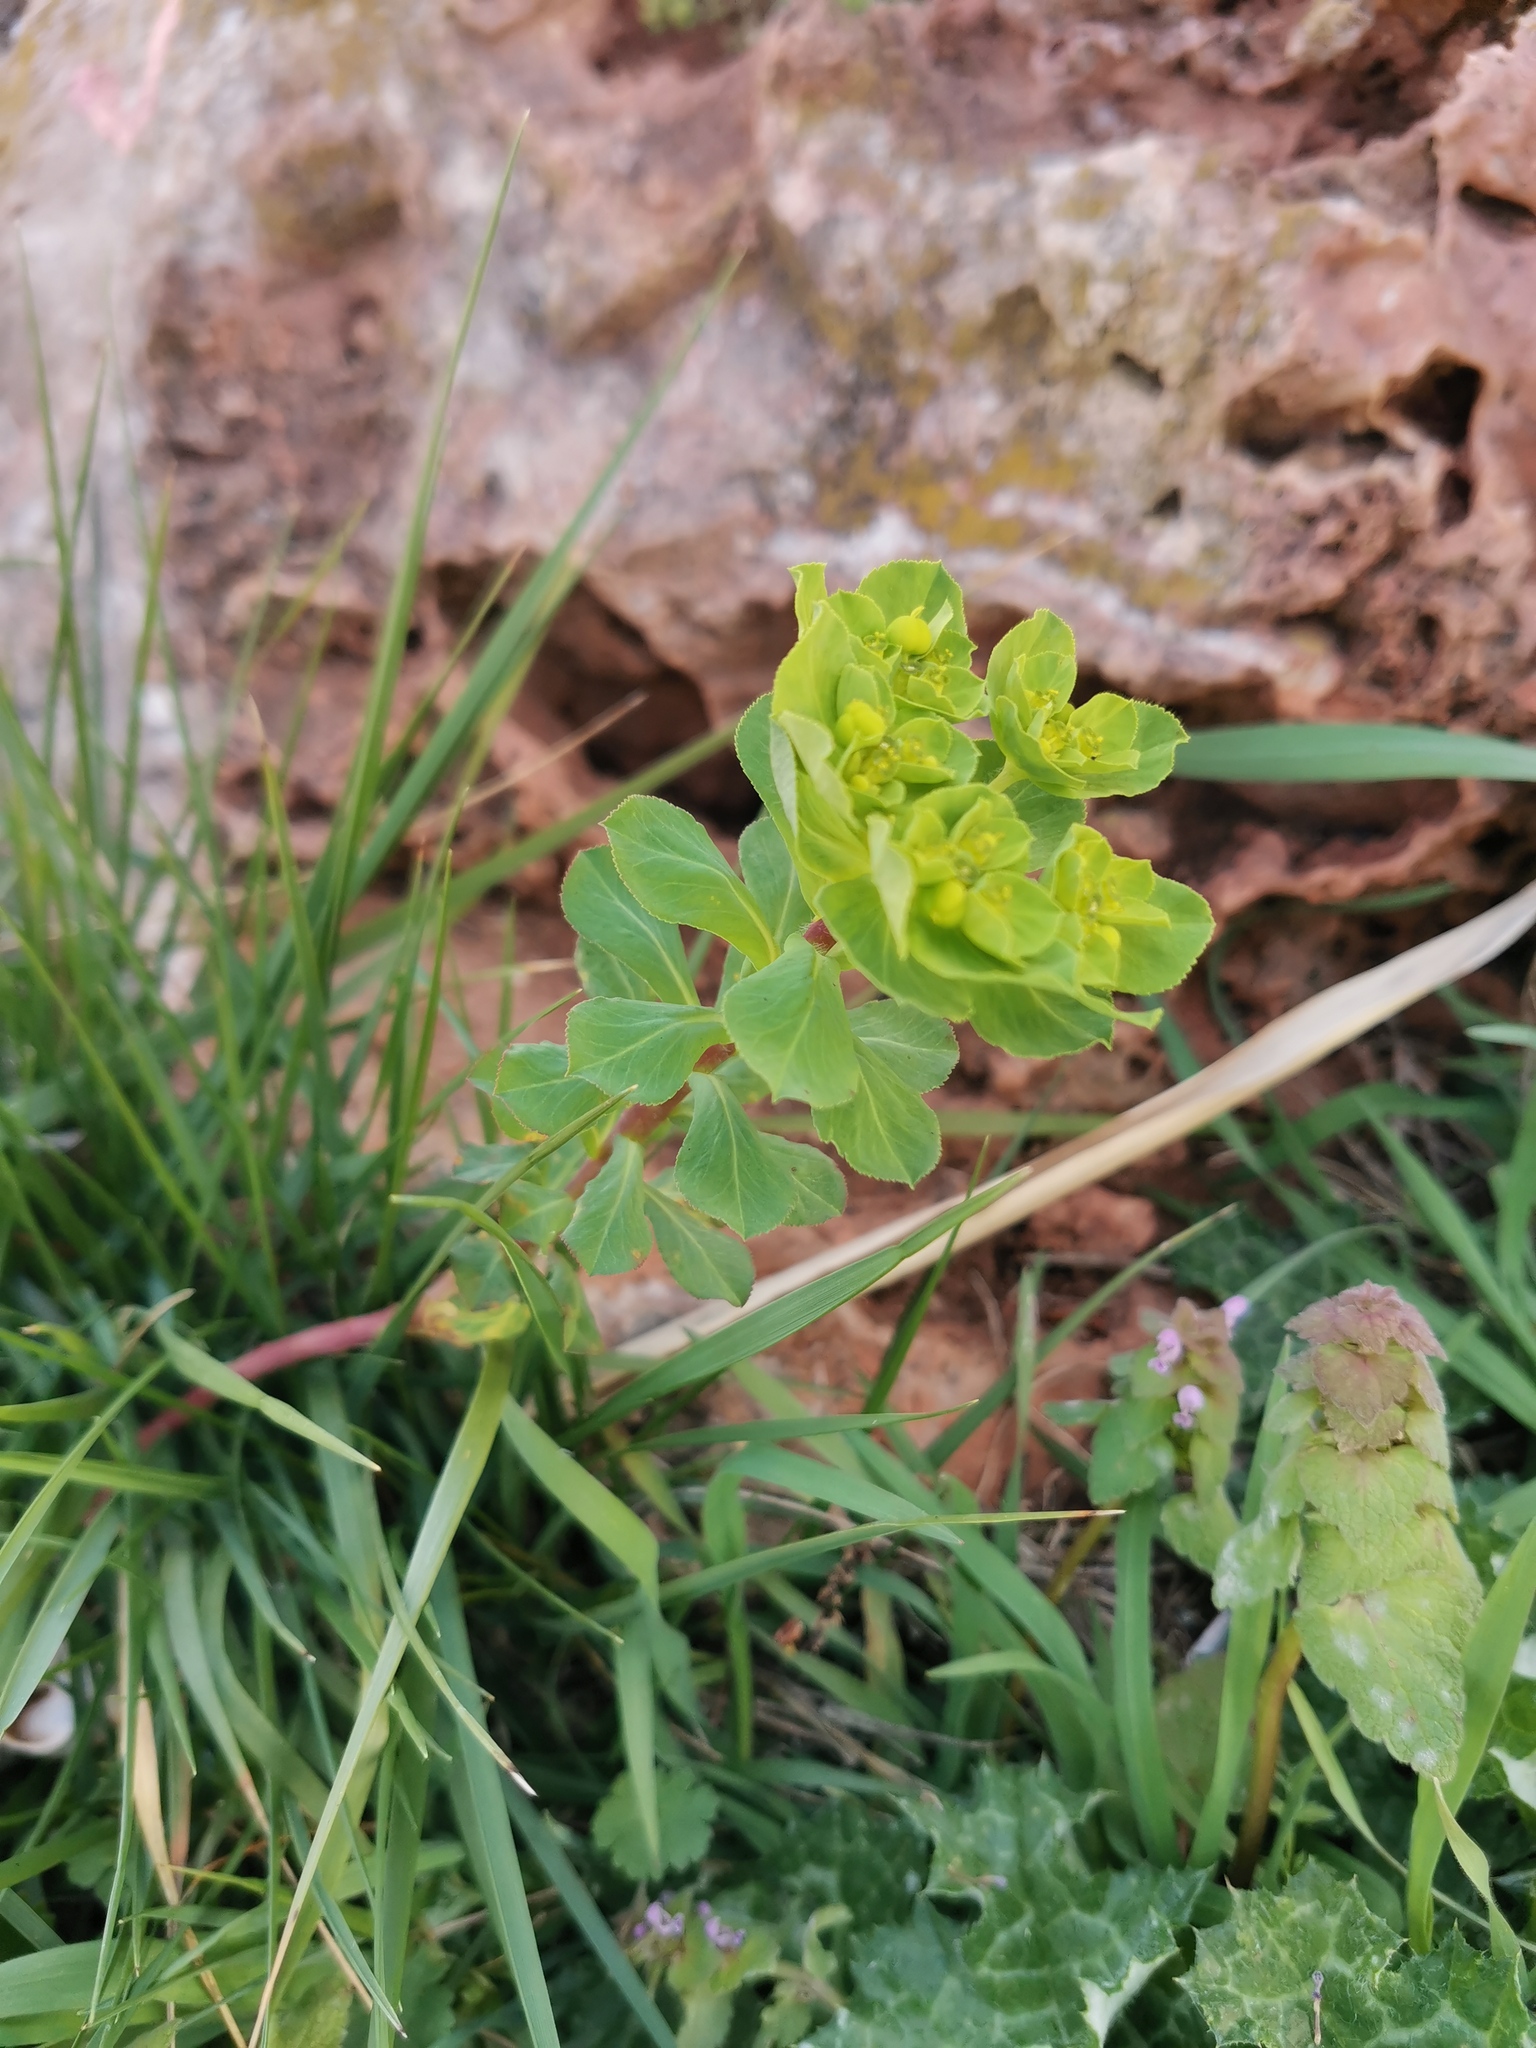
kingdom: Plantae
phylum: Tracheophyta
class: Magnoliopsida
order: Malpighiales
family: Euphorbiaceae
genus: Euphorbia
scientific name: Euphorbia helioscopia
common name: Sun spurge
